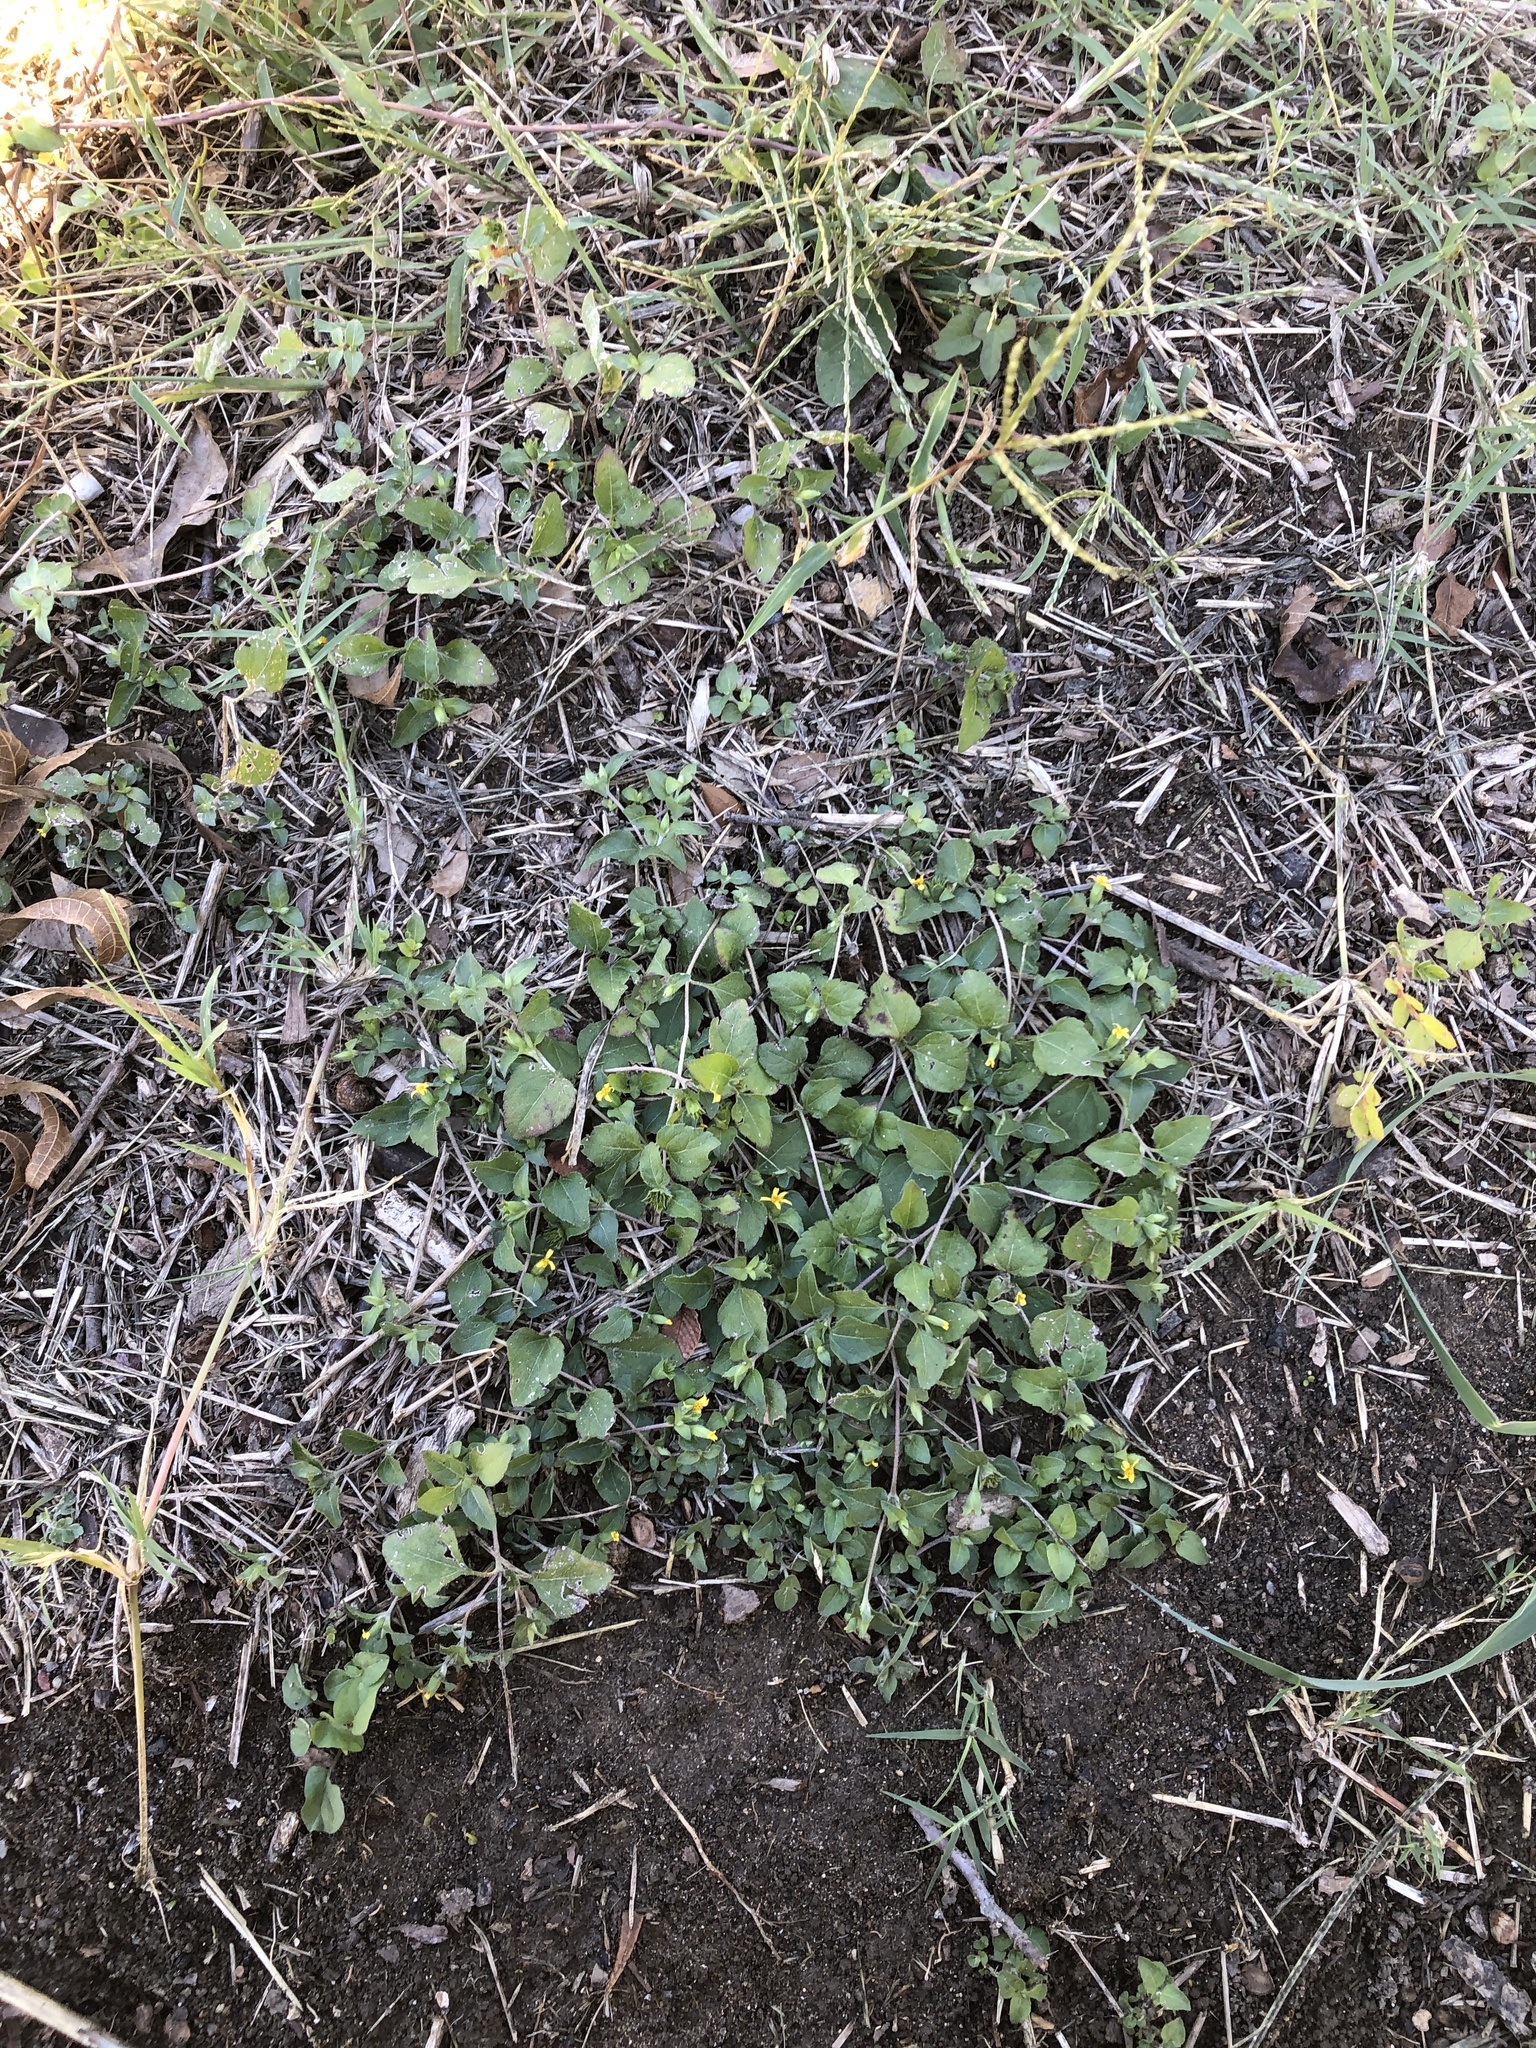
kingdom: Plantae
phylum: Tracheophyta
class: Magnoliopsida
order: Asterales
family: Asteraceae
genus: Calyptocarpus
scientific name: Calyptocarpus vialis
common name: Straggler daisy
